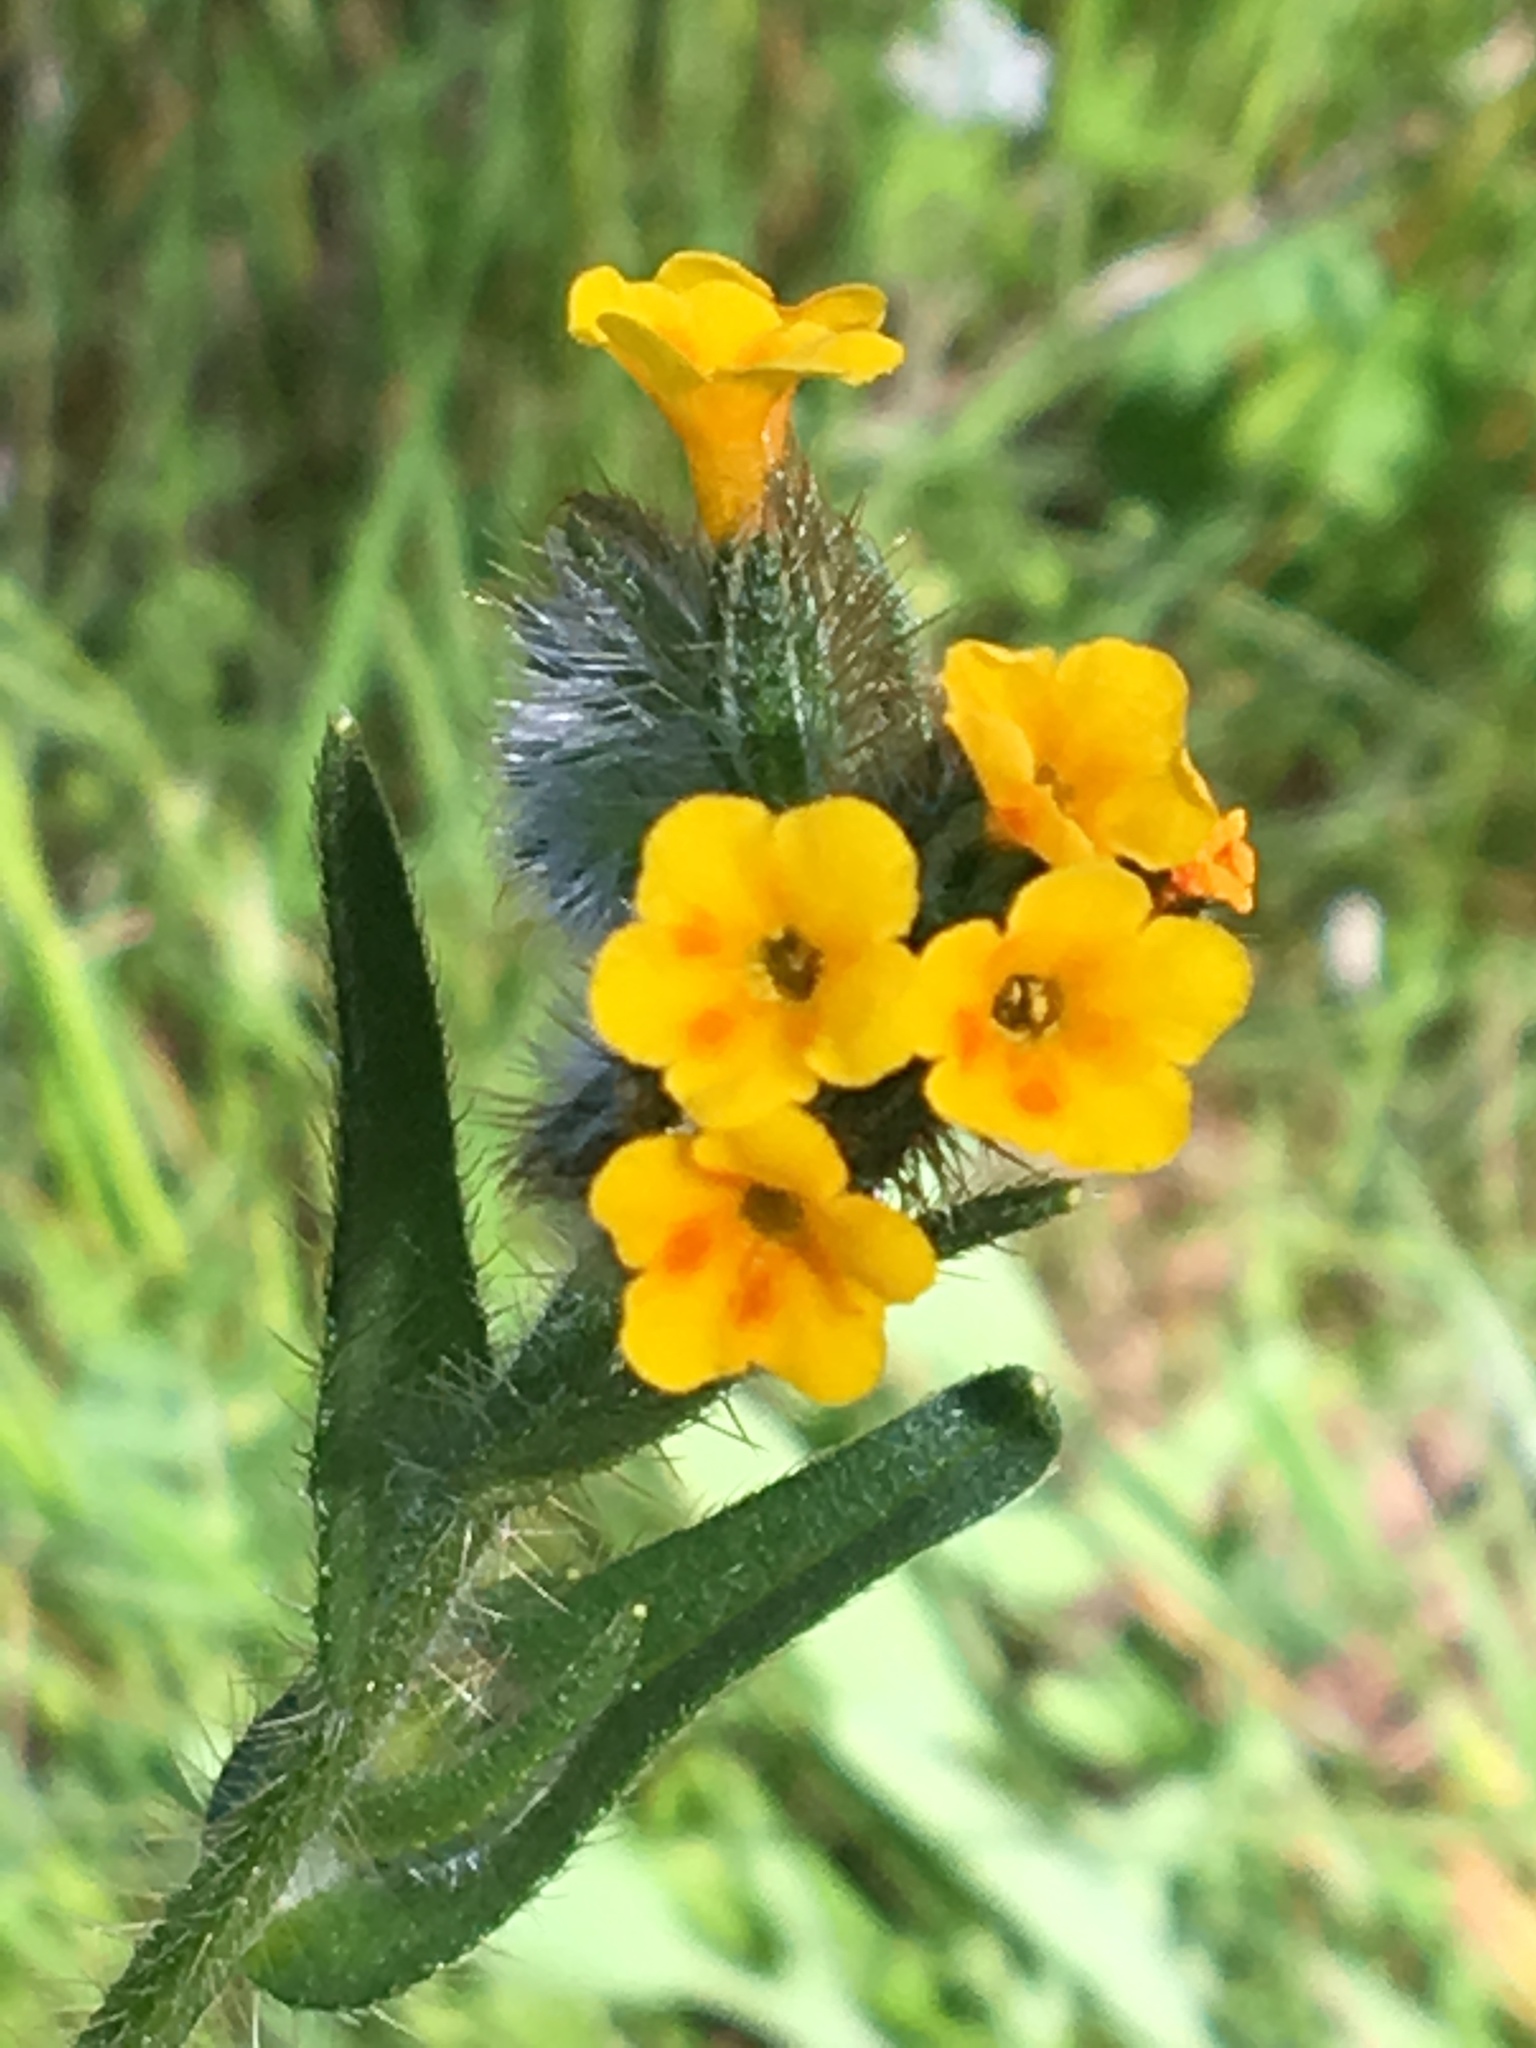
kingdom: Plantae
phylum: Tracheophyta
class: Magnoliopsida
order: Boraginales
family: Boraginaceae
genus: Amsinckia
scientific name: Amsinckia menziesii
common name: Menzies' fiddleneck
